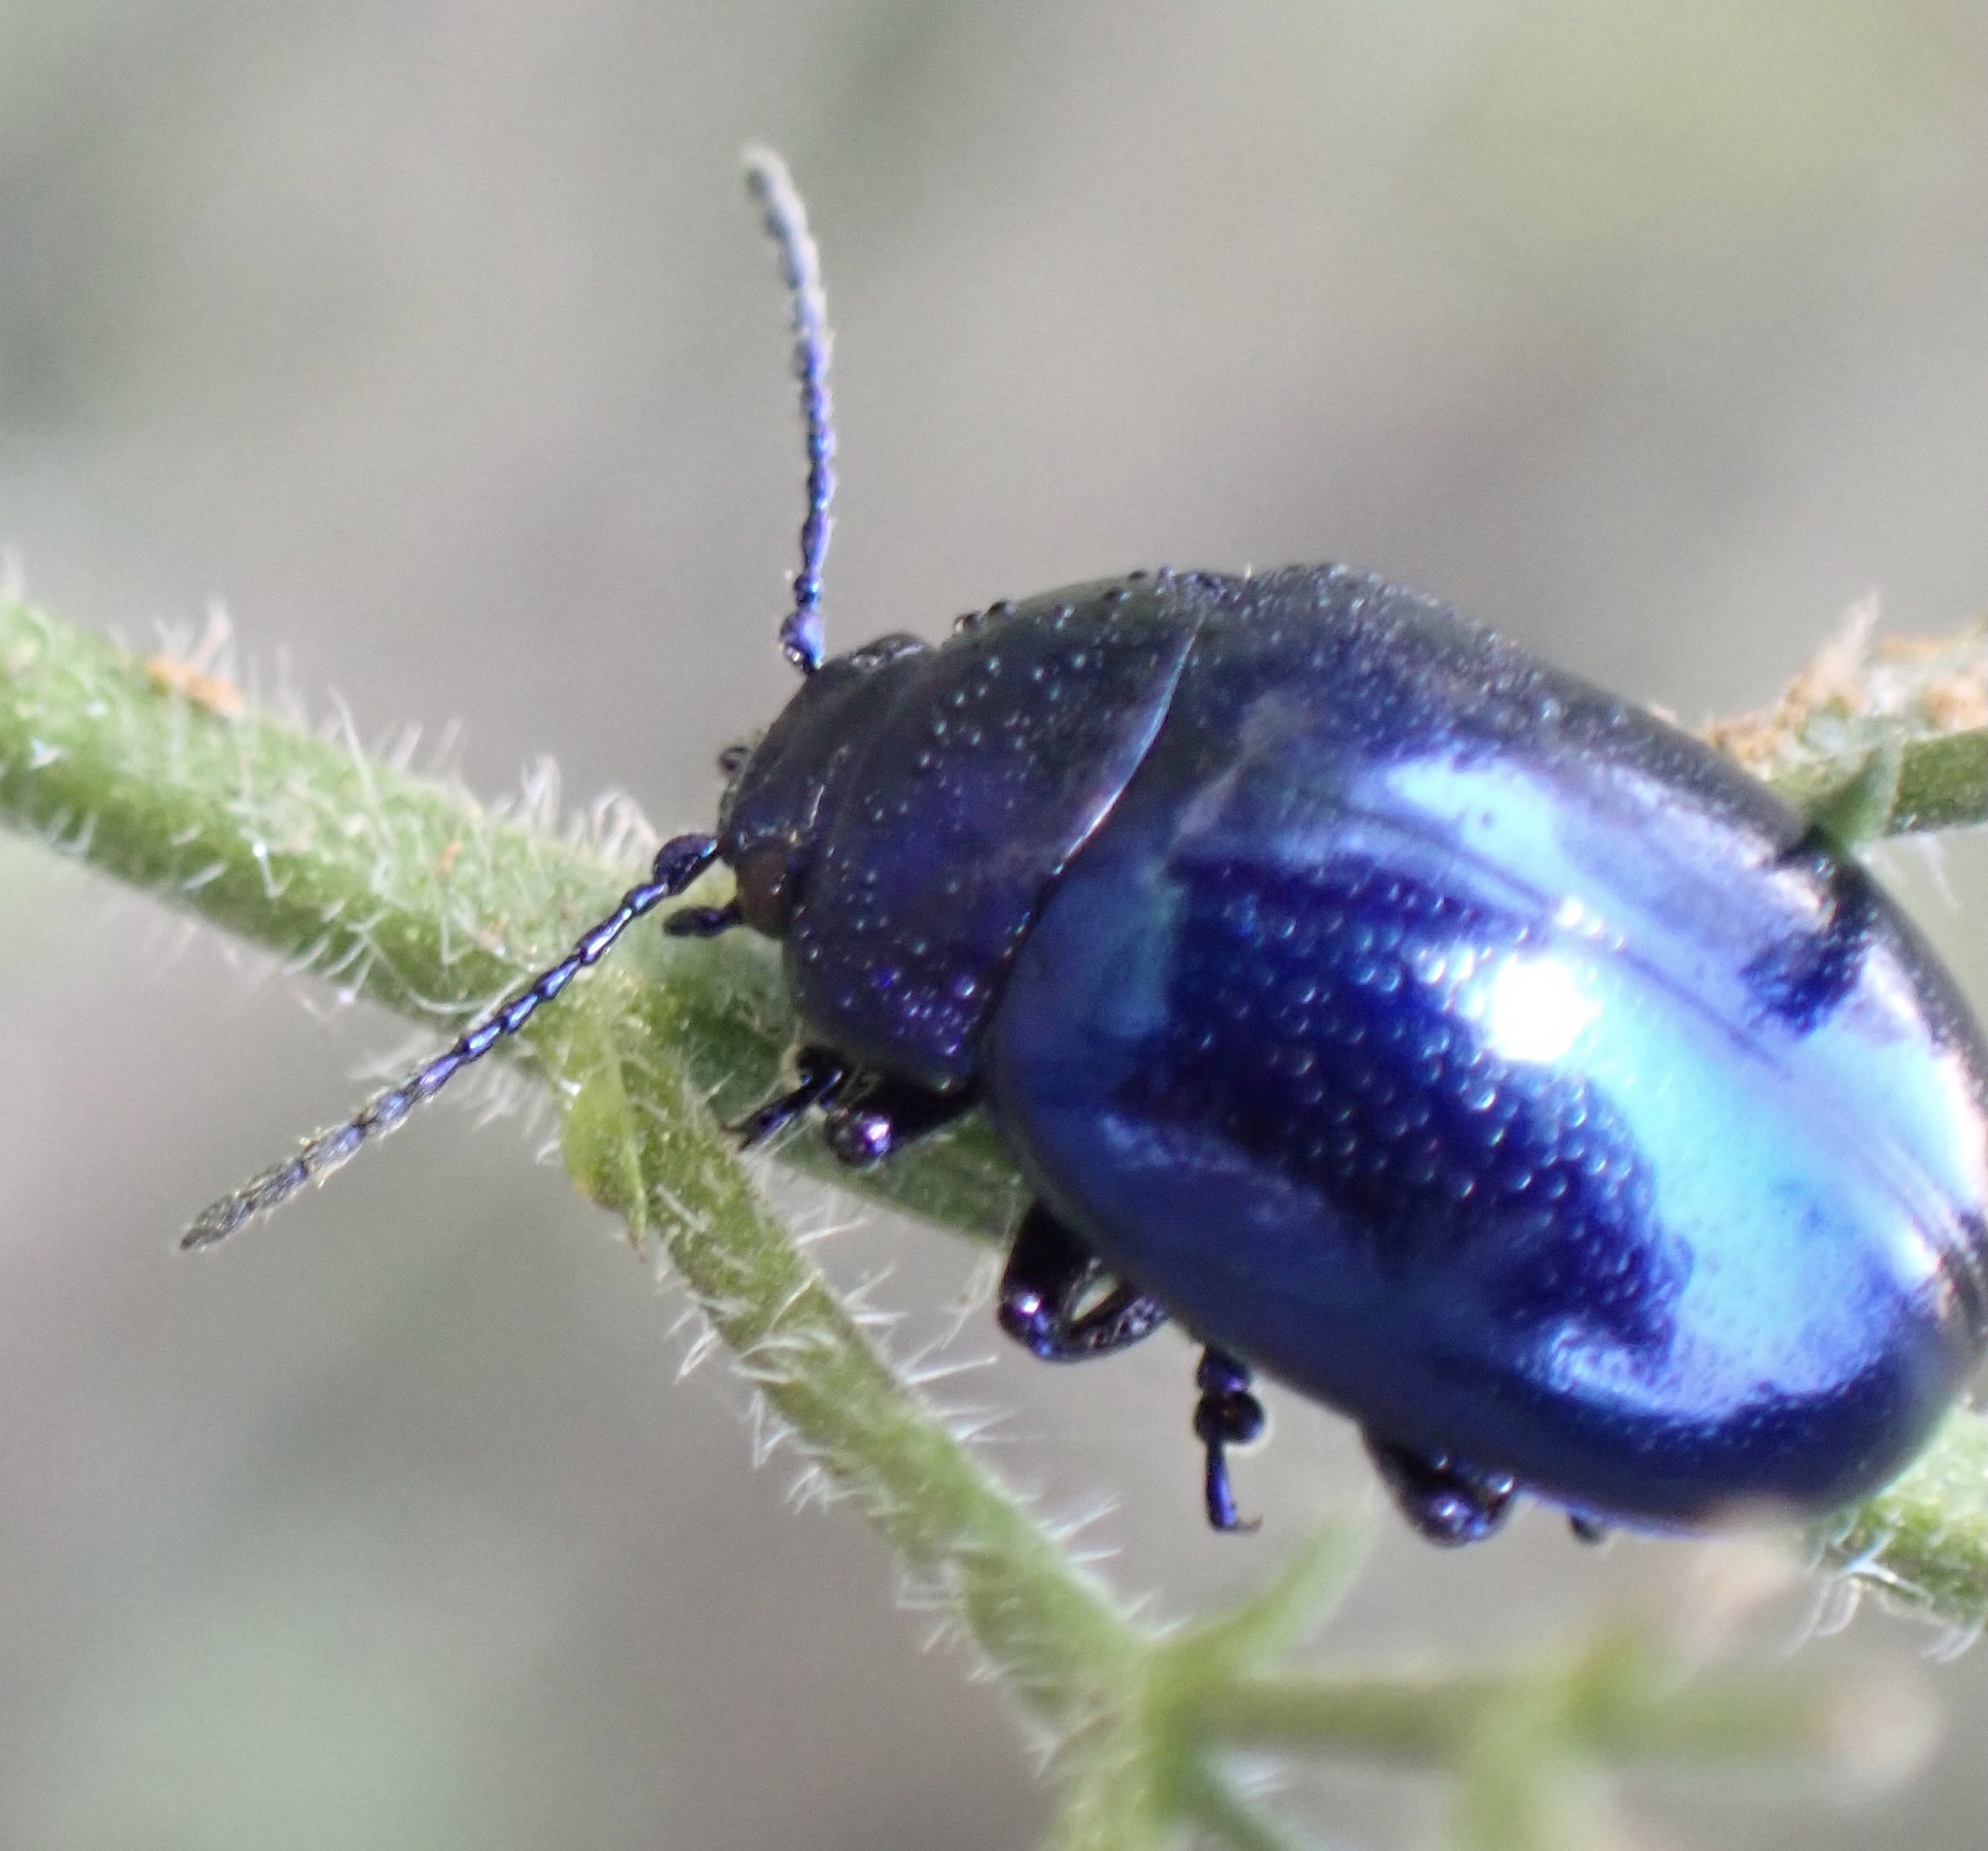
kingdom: Animalia
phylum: Arthropoda
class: Insecta
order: Coleoptera
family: Chrysomelidae
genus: Chrysolina
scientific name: Chrysolina coerulans
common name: Blue mint beetle
